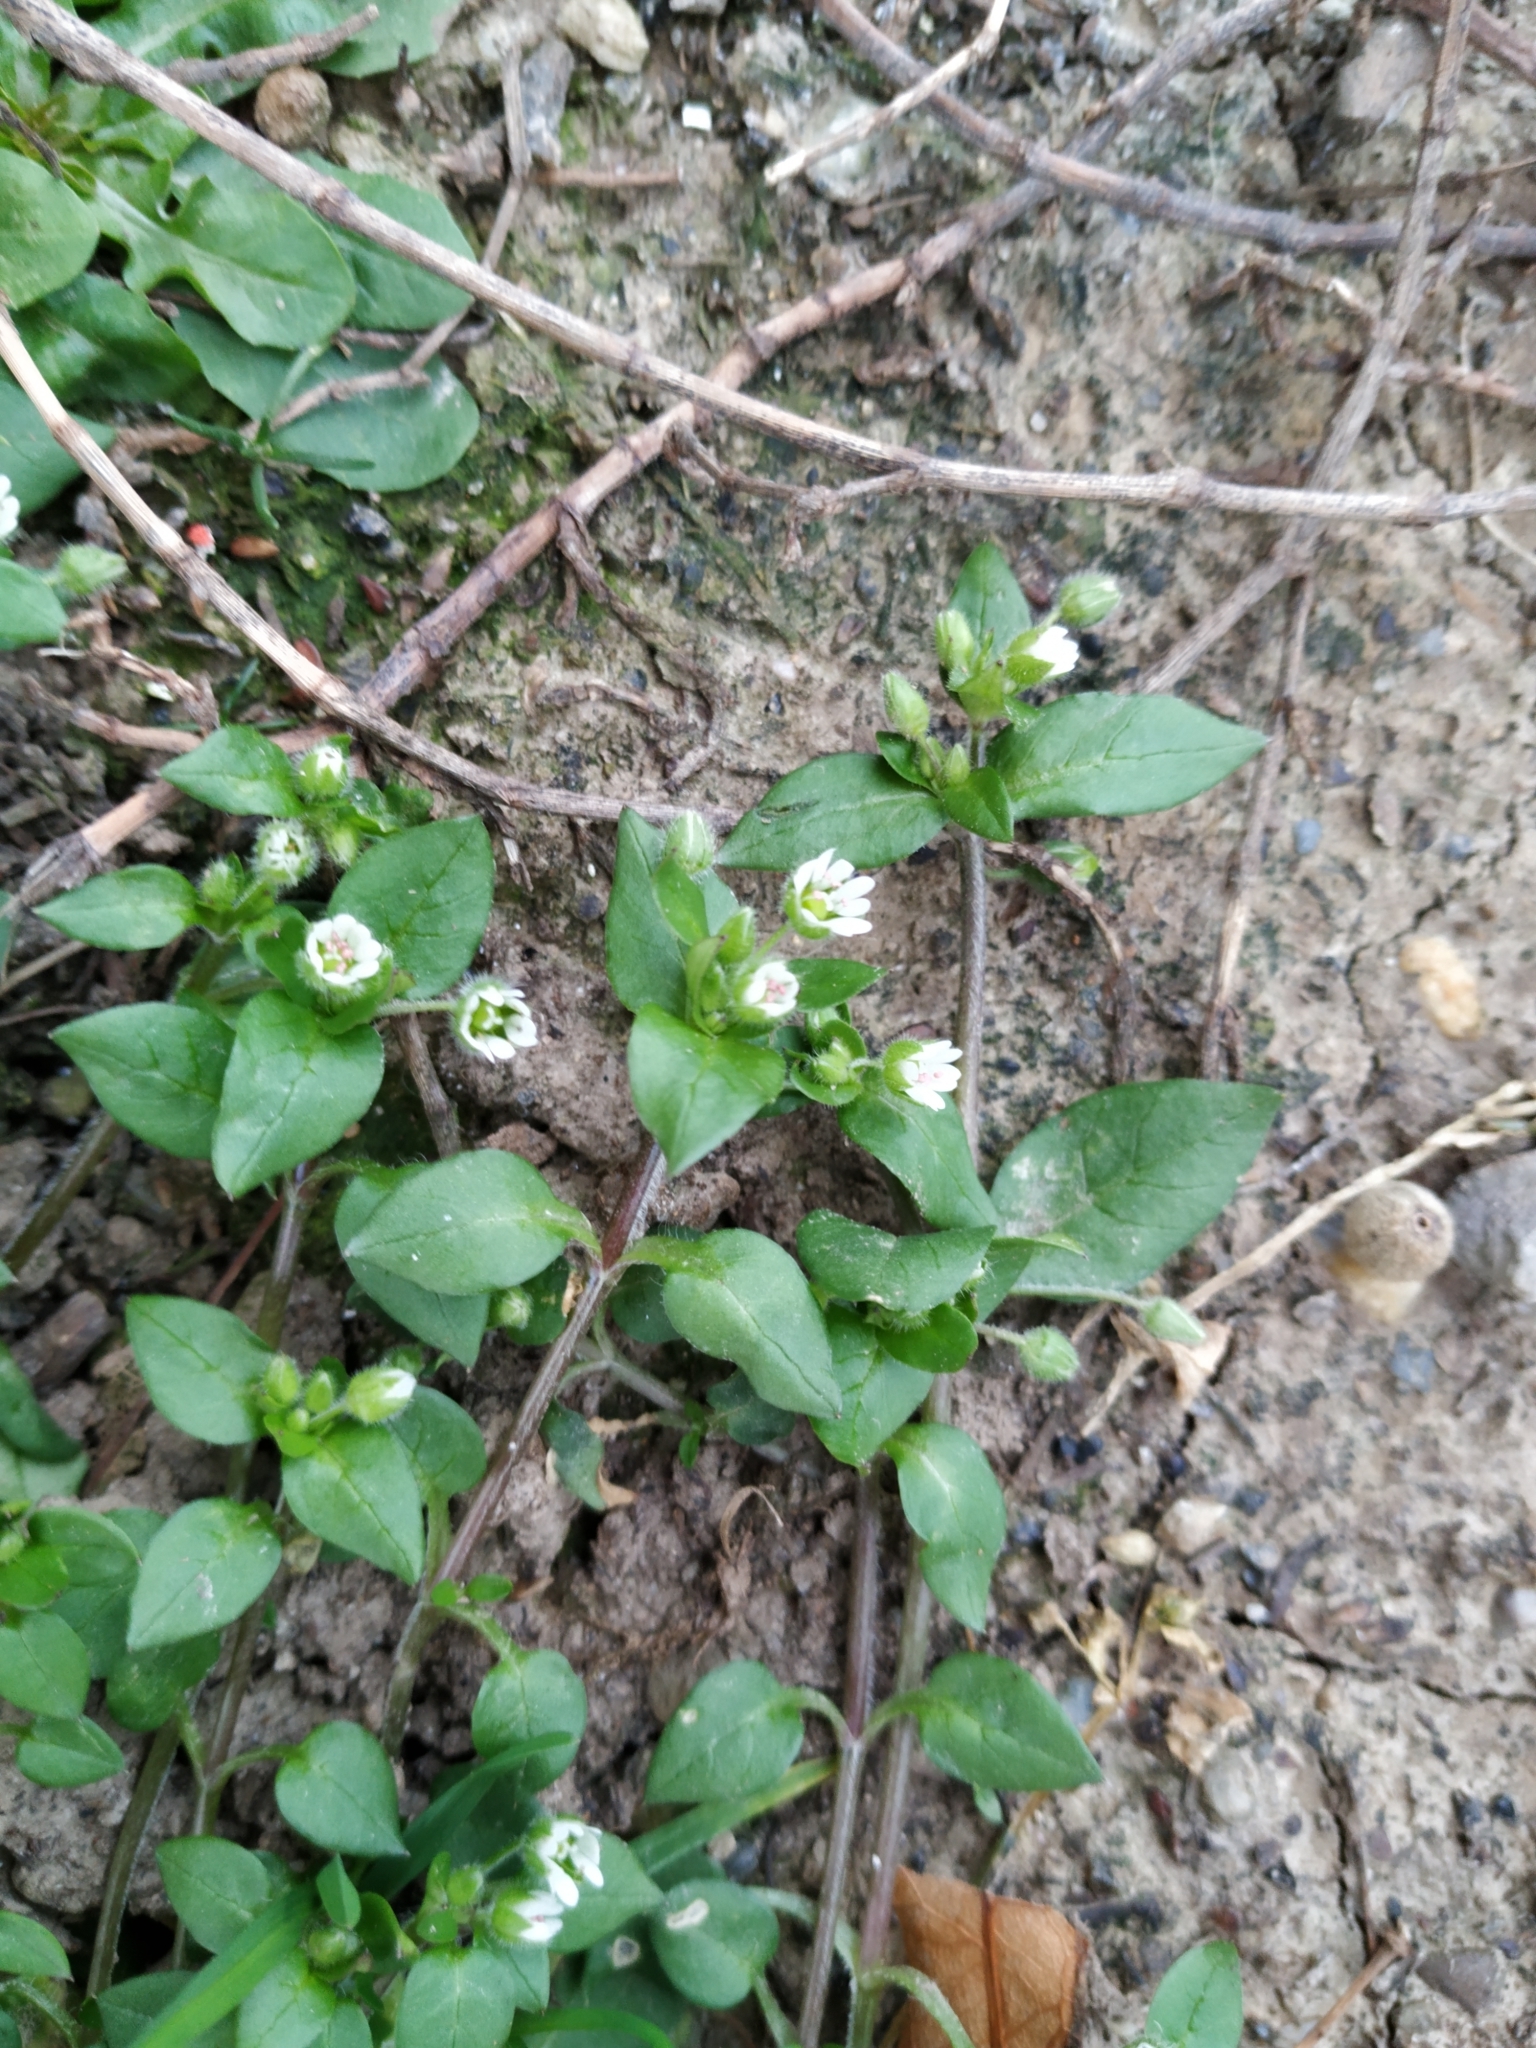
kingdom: Plantae
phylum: Tracheophyta
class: Magnoliopsida
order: Caryophyllales
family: Caryophyllaceae
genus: Stellaria
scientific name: Stellaria media
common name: Common chickweed
